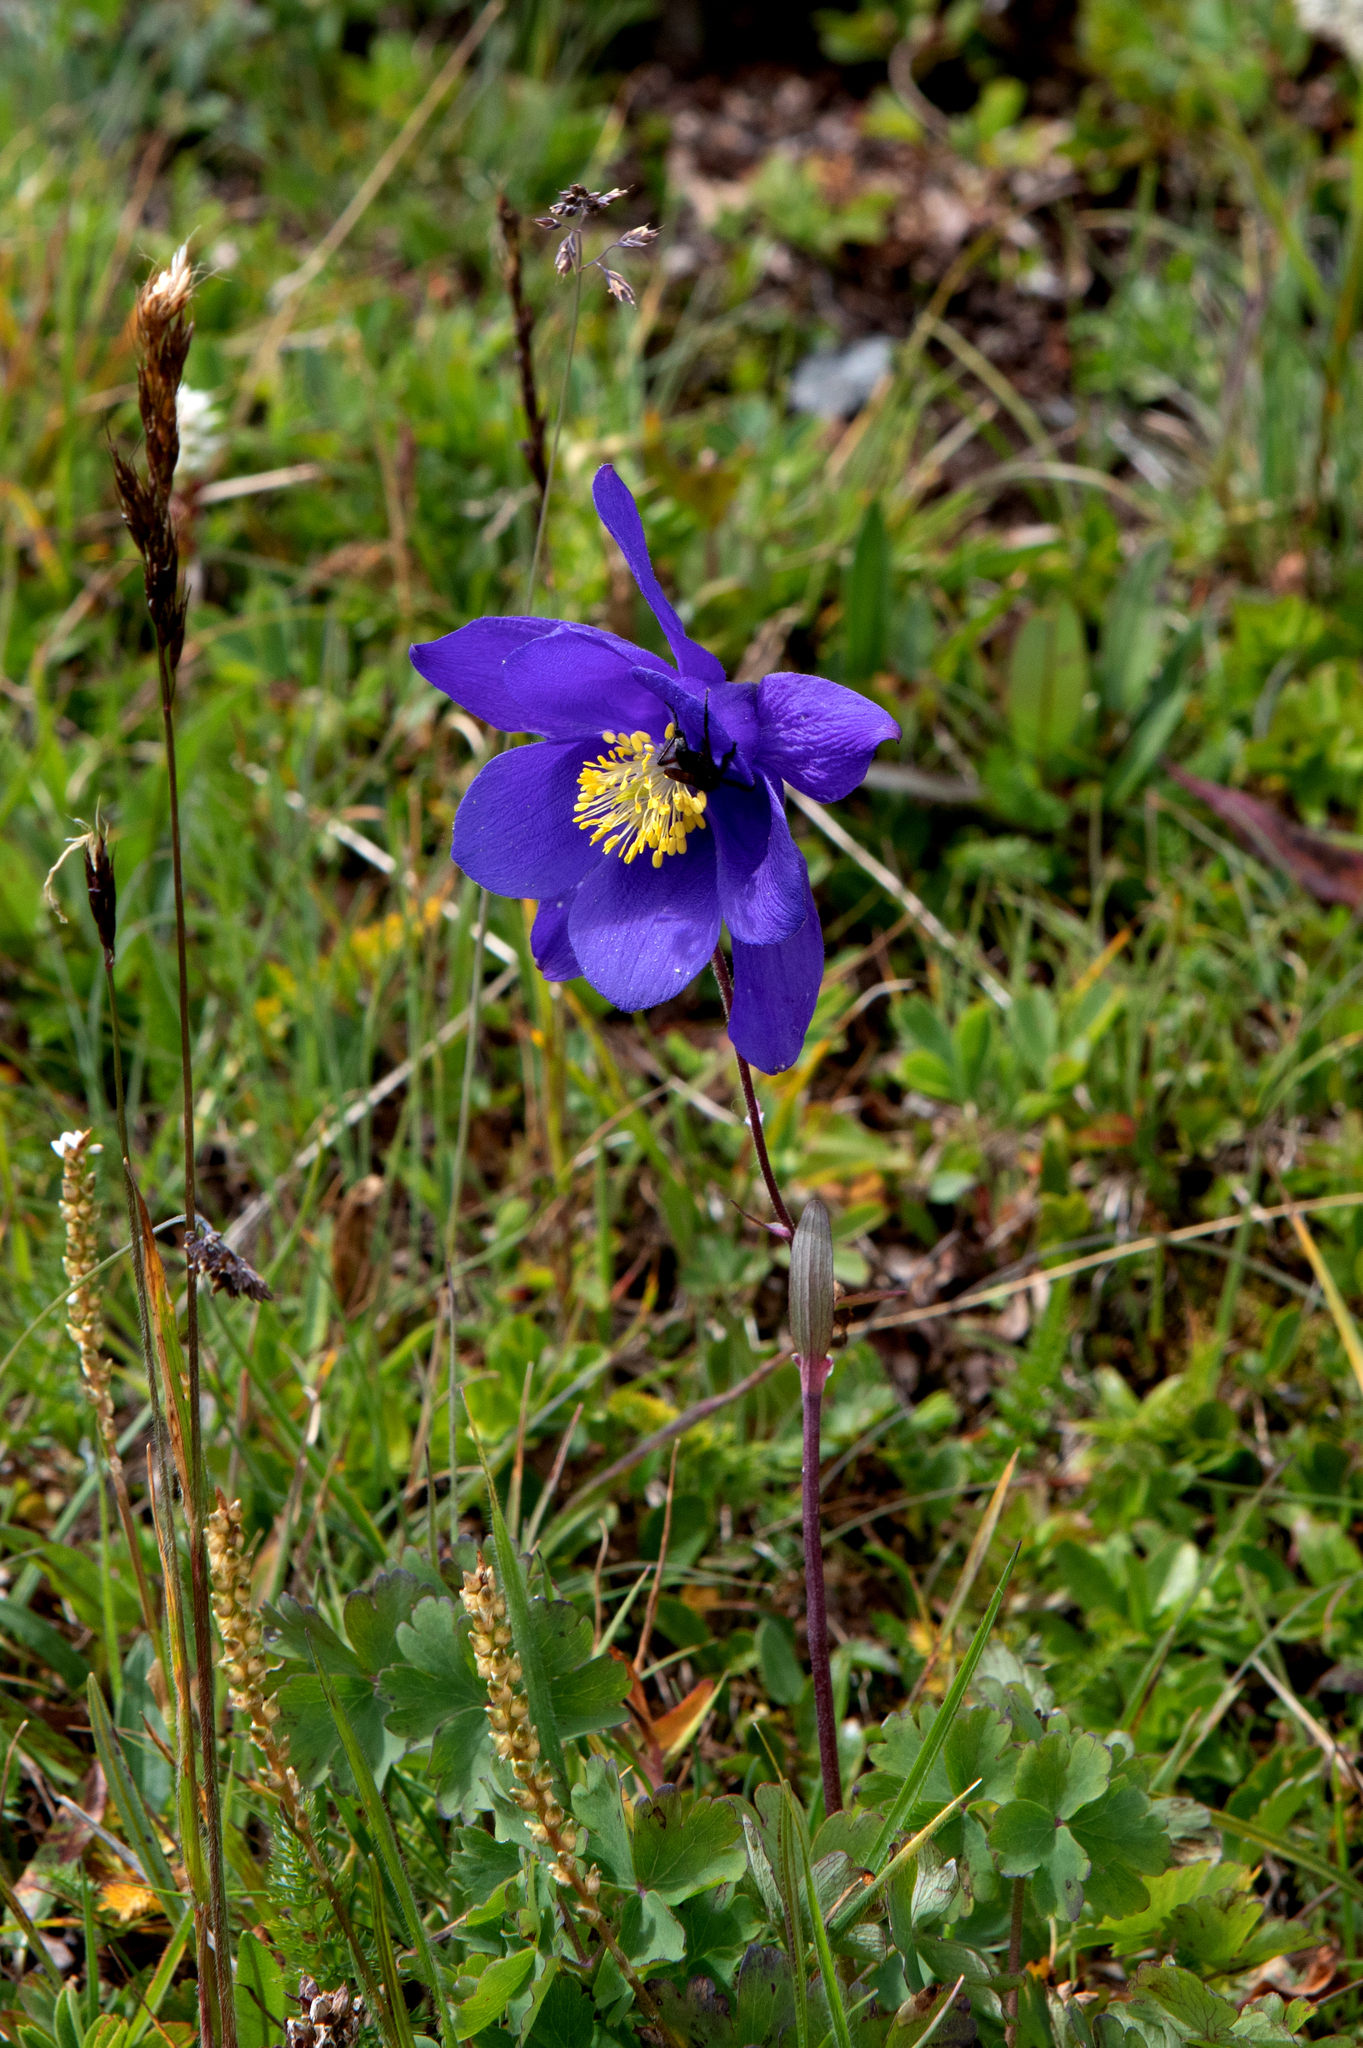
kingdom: Plantae
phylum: Tracheophyta
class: Magnoliopsida
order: Ranunculales
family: Ranunculaceae
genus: Aquilegia
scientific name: Aquilegia glandulosa
